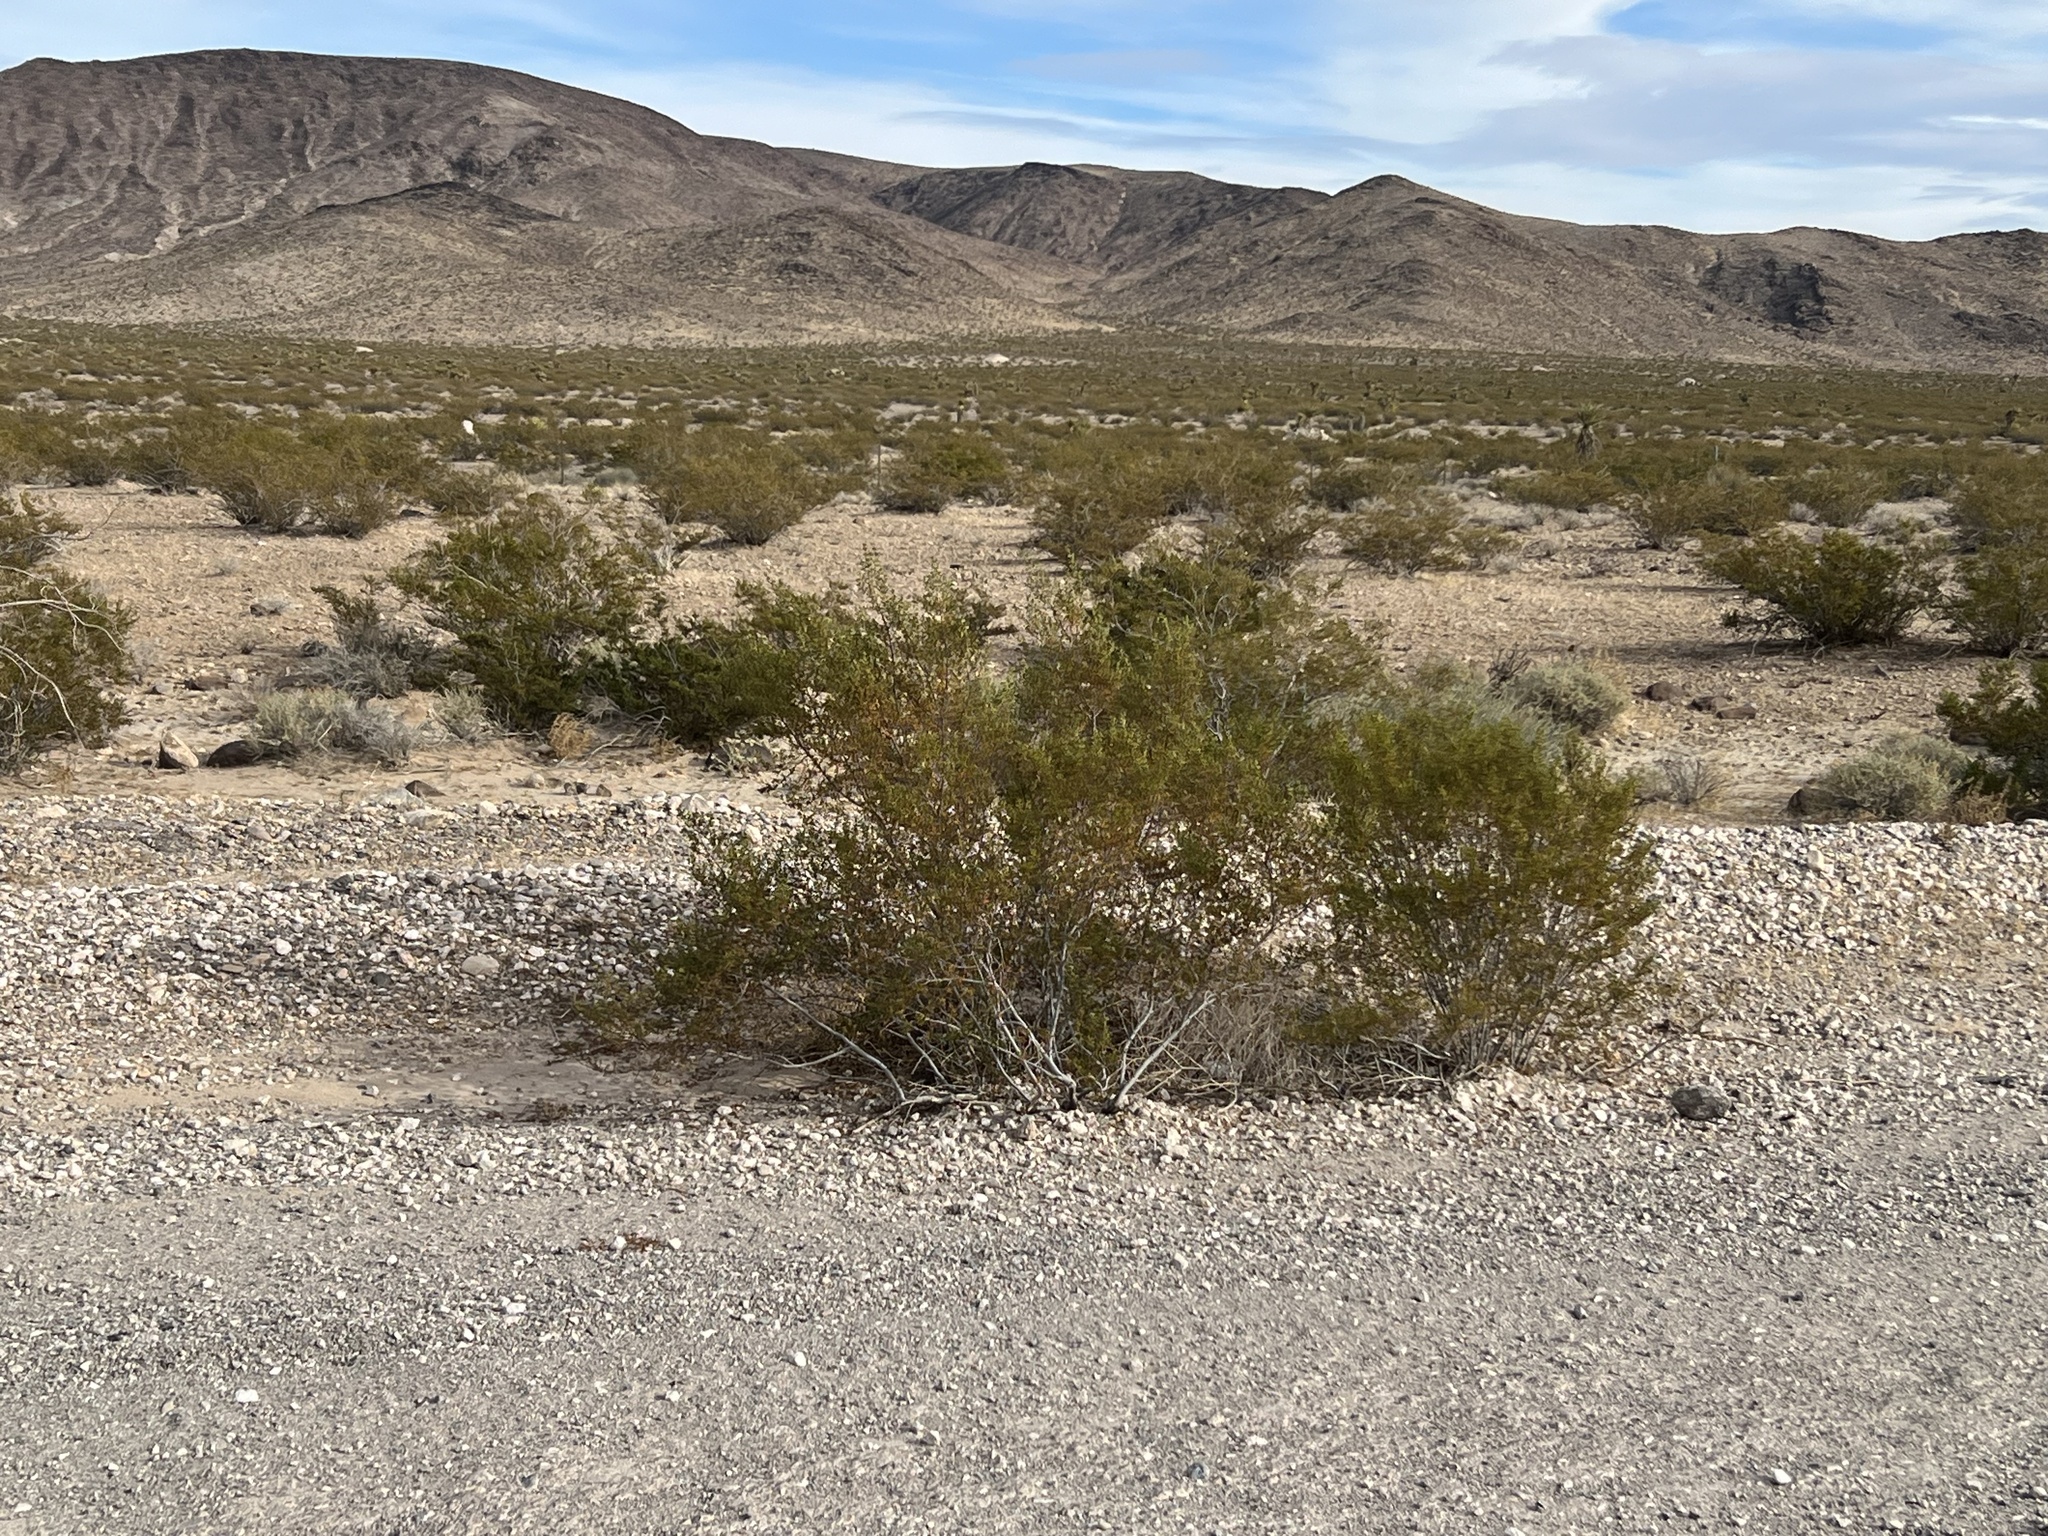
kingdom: Plantae
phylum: Tracheophyta
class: Magnoliopsida
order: Zygophyllales
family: Zygophyllaceae
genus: Larrea
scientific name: Larrea tridentata
